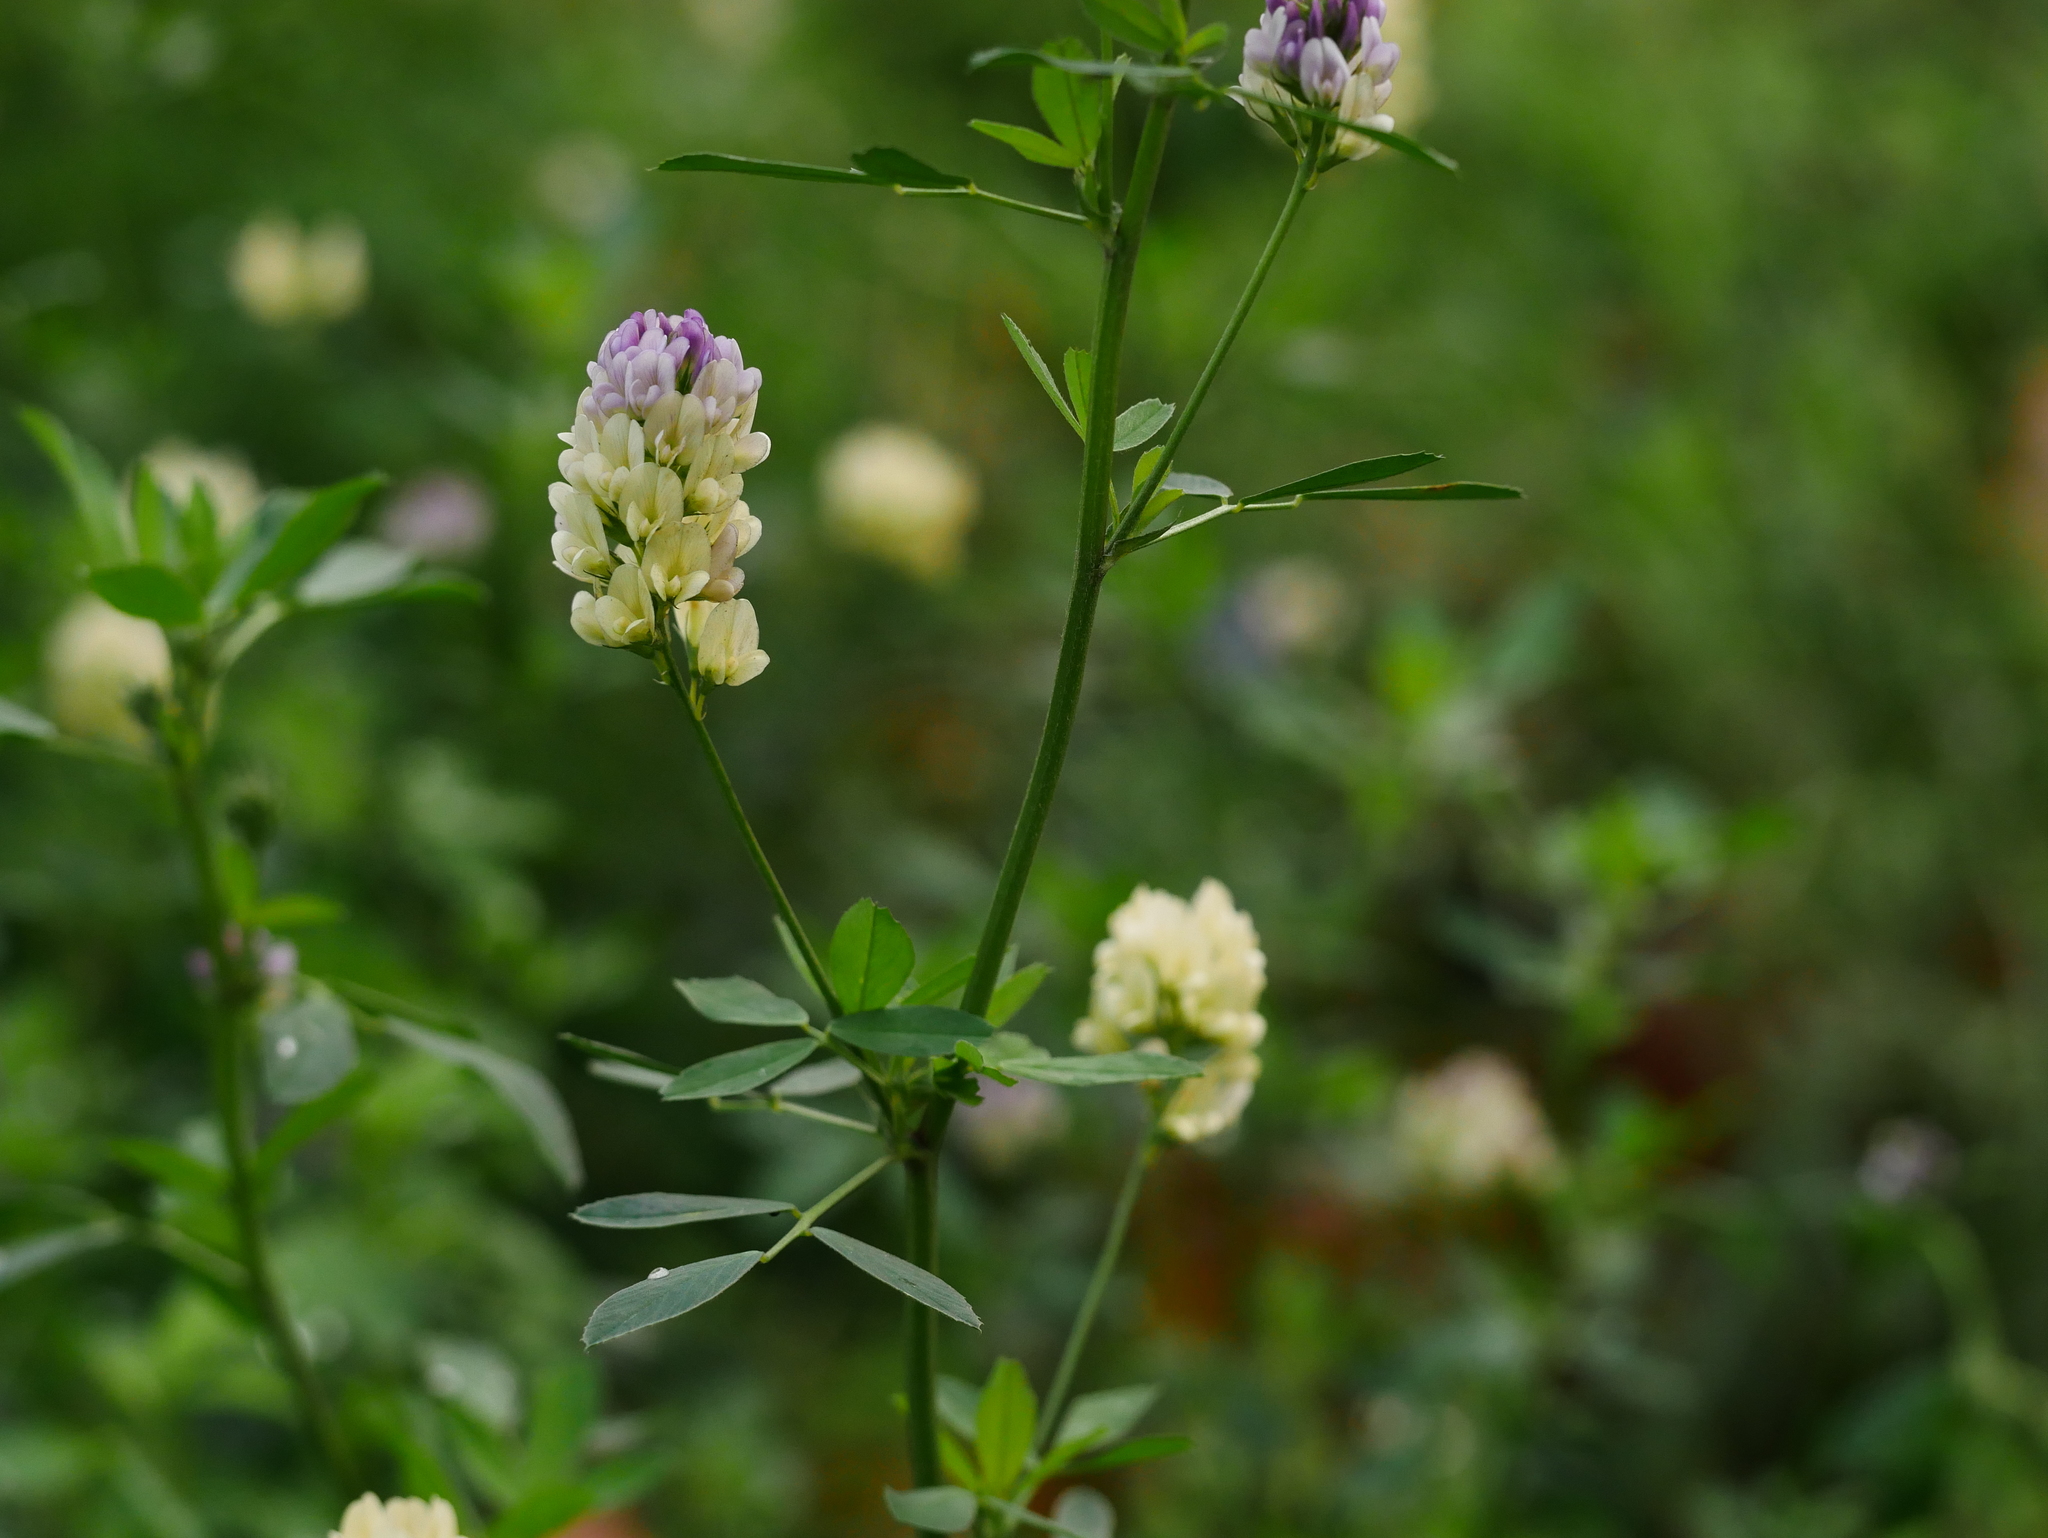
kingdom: Plantae
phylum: Tracheophyta
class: Magnoliopsida
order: Fabales
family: Fabaceae
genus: Medicago
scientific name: Medicago varia
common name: Sand lucerne
